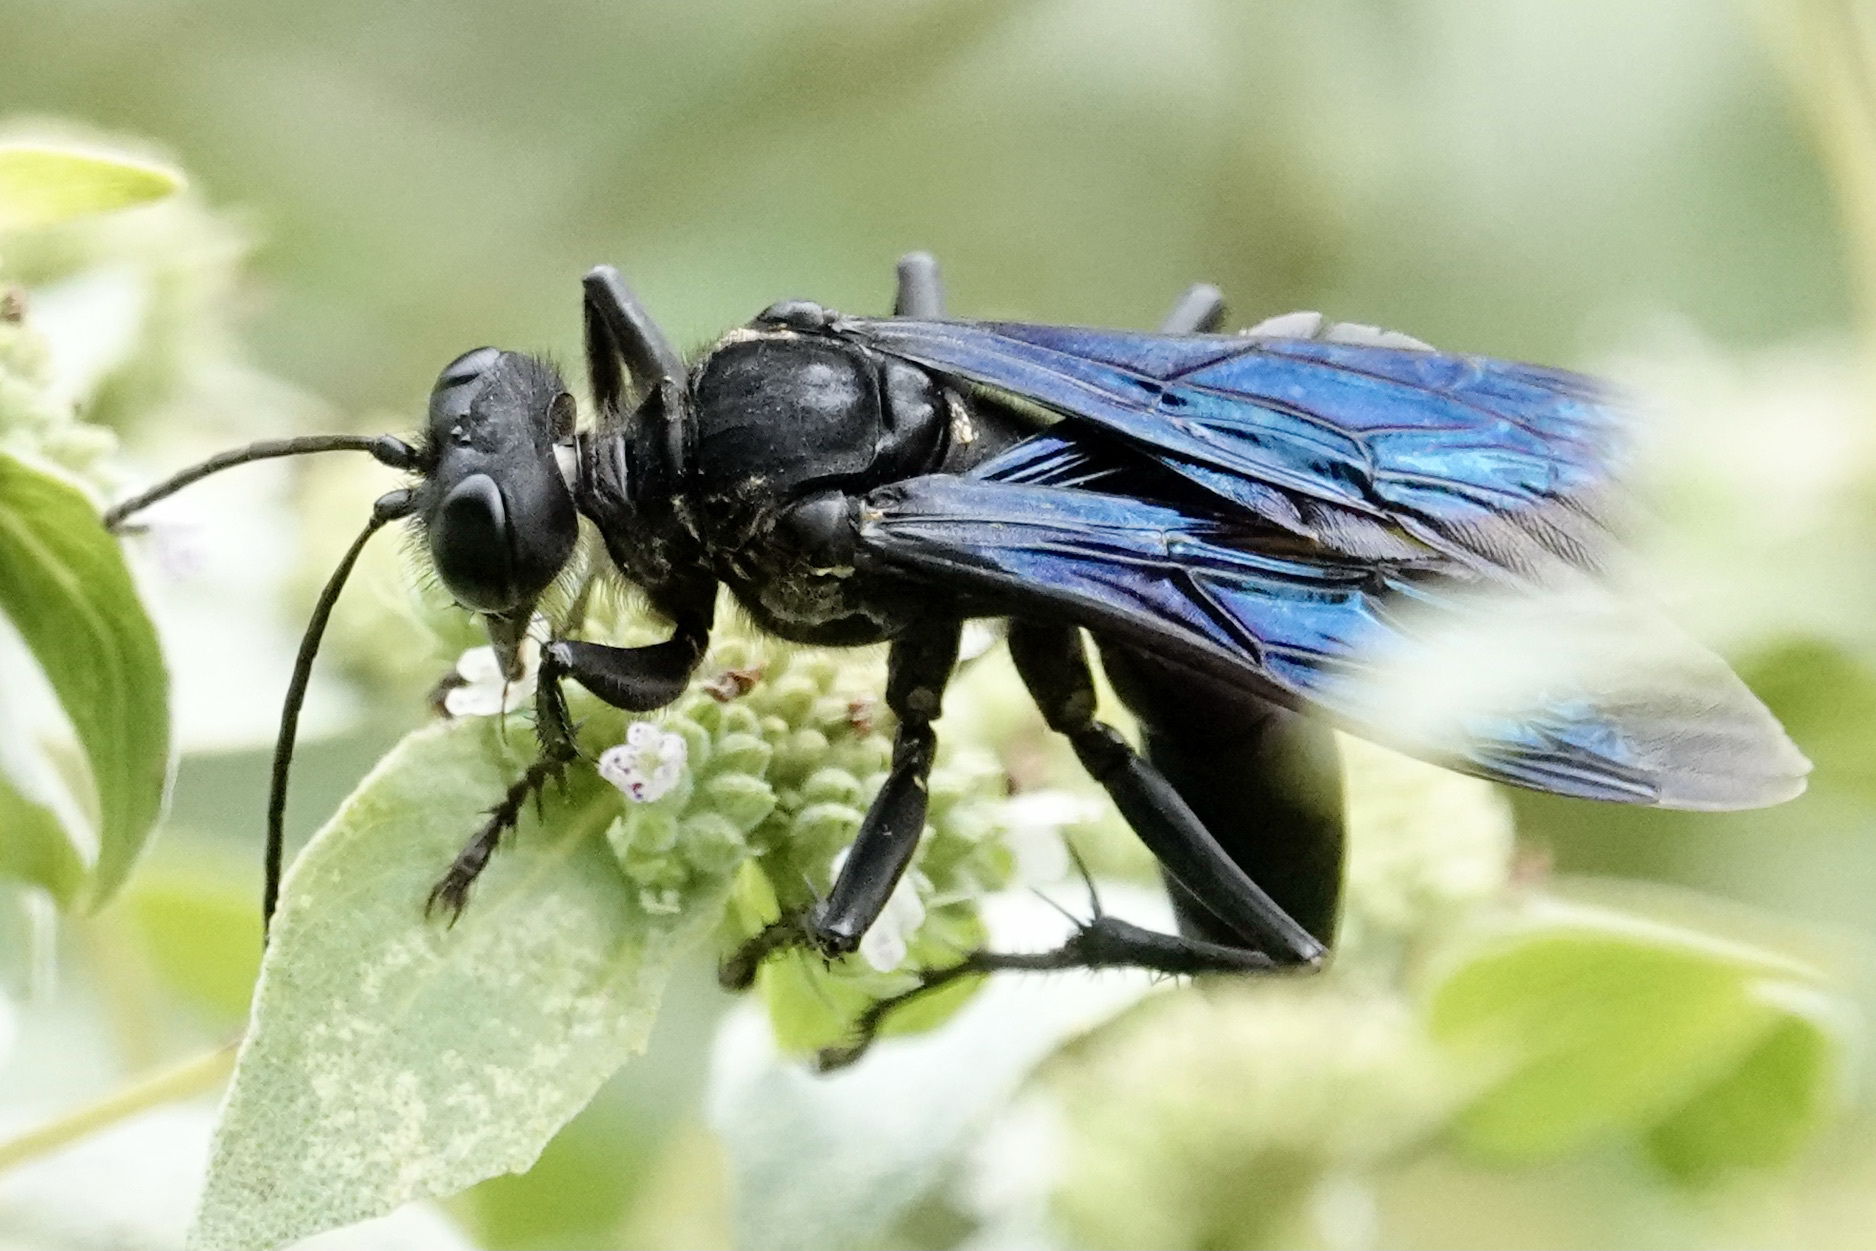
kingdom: Animalia
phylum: Arthropoda
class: Insecta
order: Hymenoptera
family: Sphecidae
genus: Sphex
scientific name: Sphex pensylvanicus
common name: Great black digger wasp
